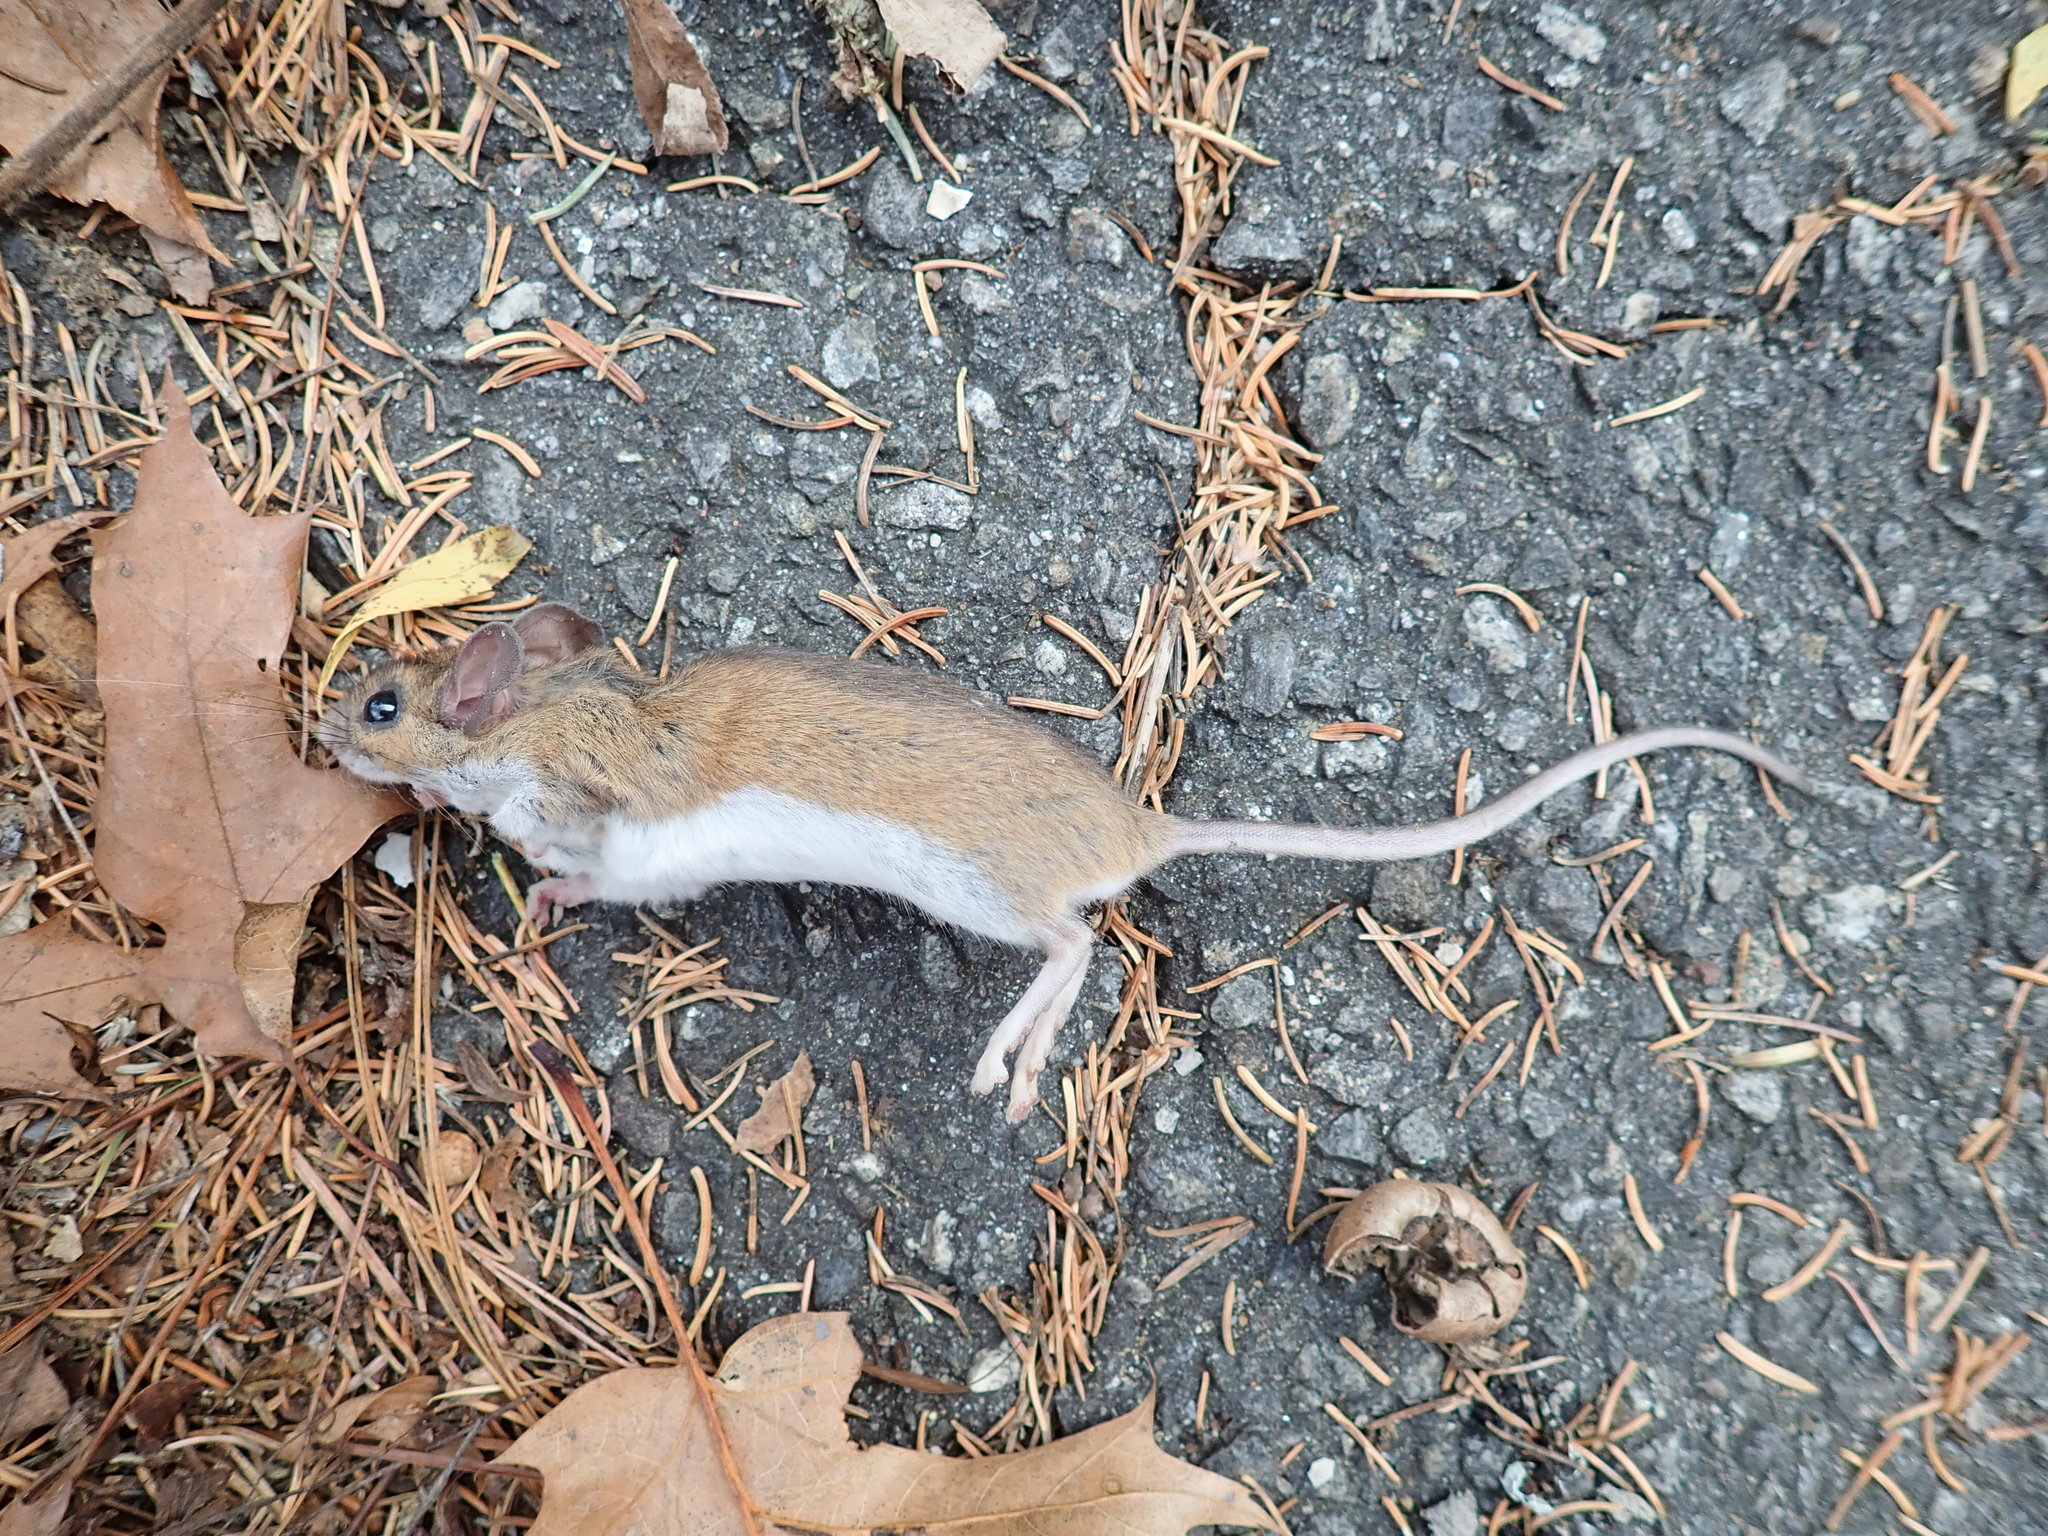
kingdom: Animalia
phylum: Chordata
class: Mammalia
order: Rodentia
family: Cricetidae
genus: Peromyscus
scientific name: Peromyscus leucopus
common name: White-footed deermouse
